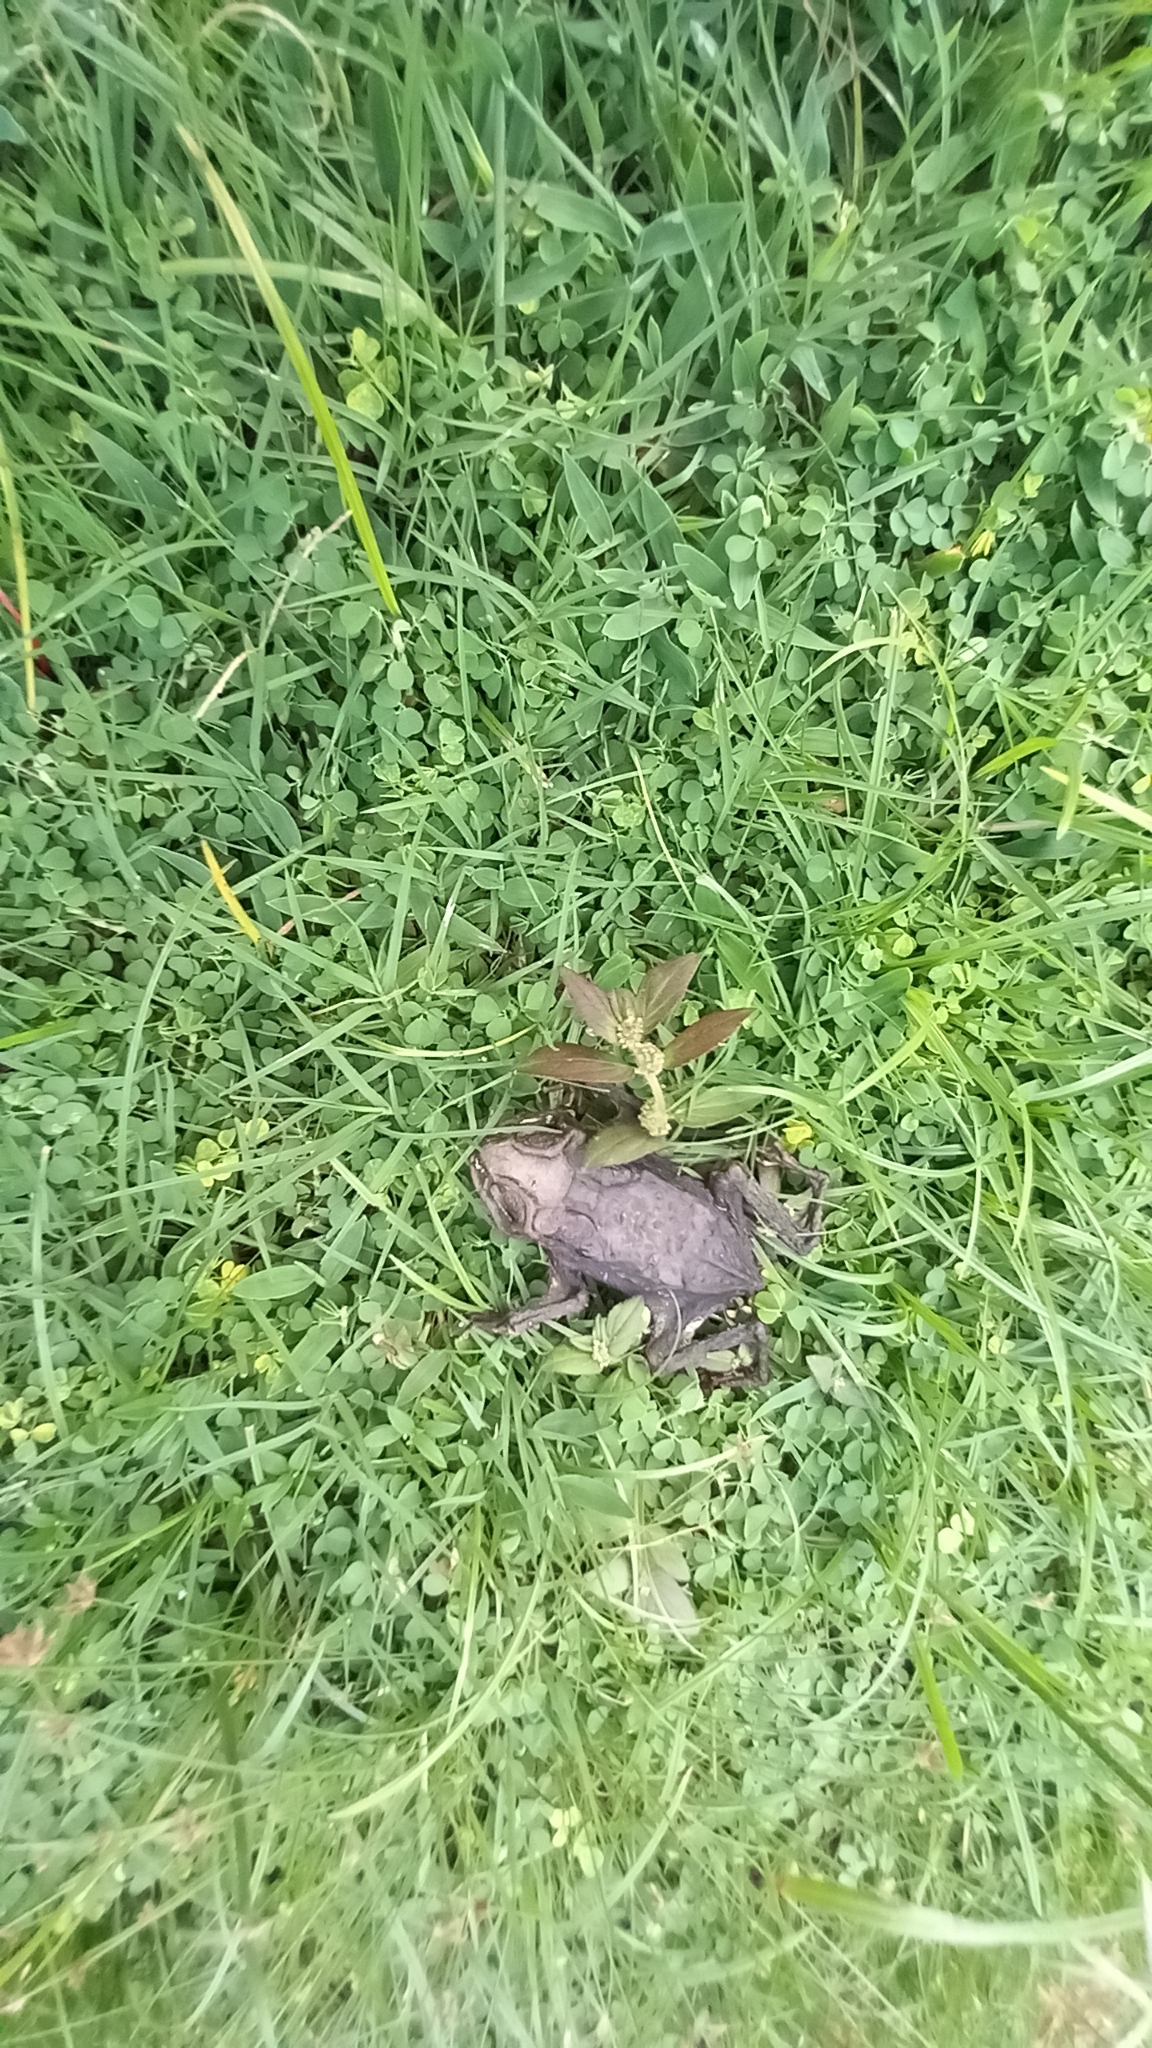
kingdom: Animalia
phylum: Chordata
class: Amphibia
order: Anura
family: Bufonidae
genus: Duttaphrynus
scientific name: Duttaphrynus melanostictus
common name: Common sunda toad
